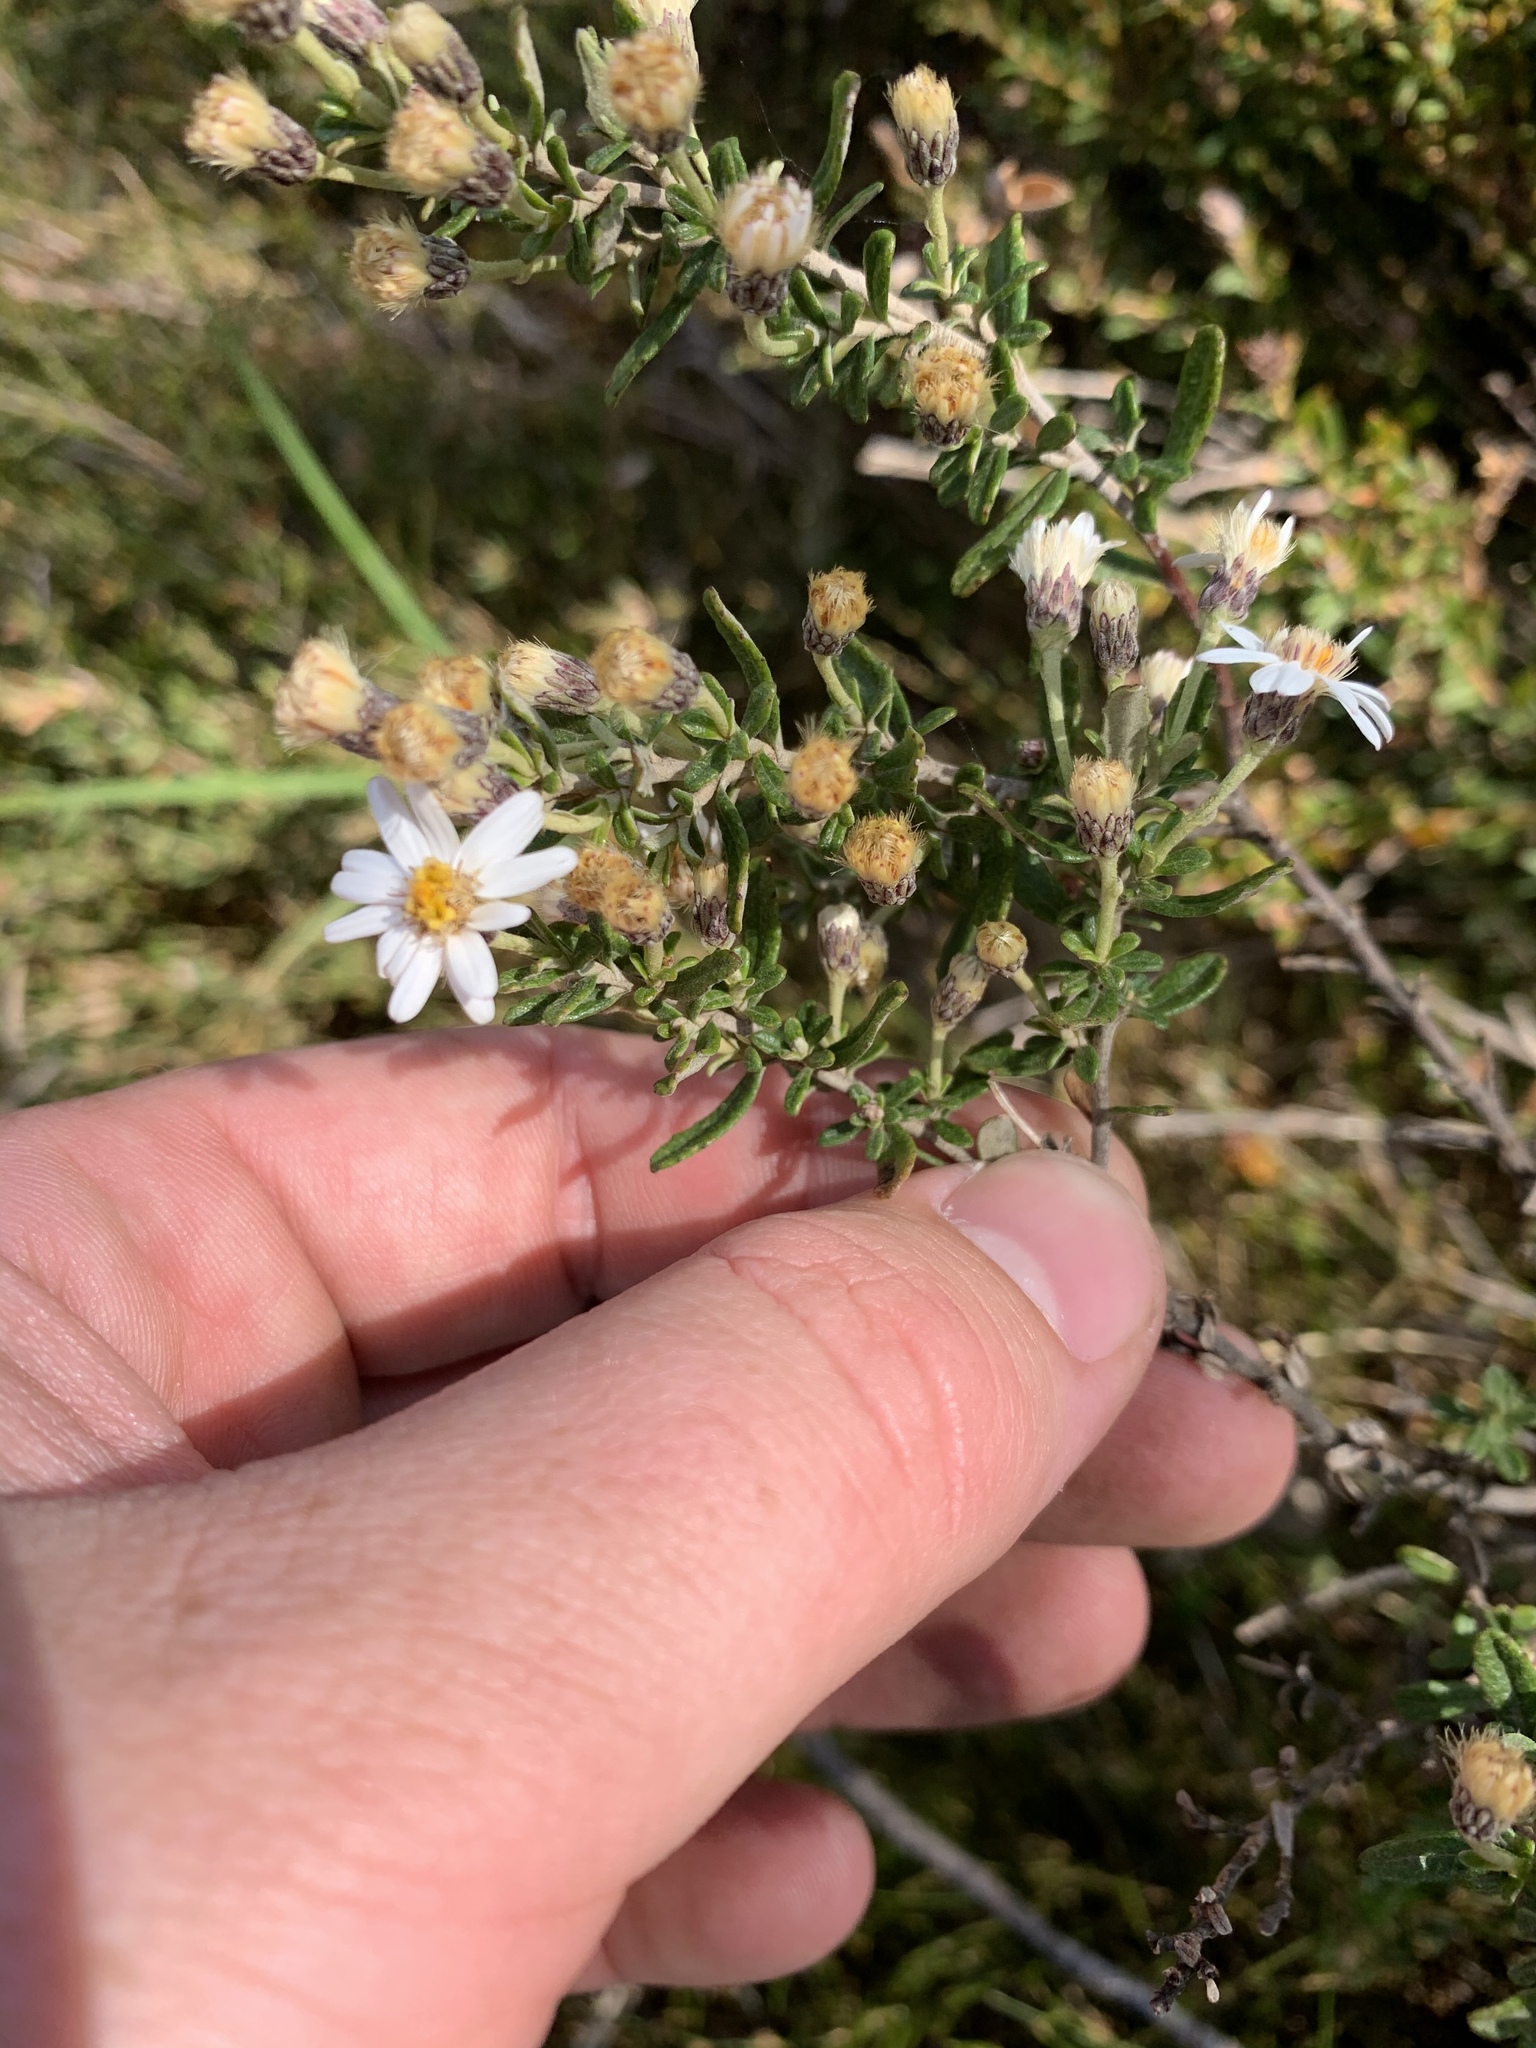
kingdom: Plantae
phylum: Tracheophyta
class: Magnoliopsida
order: Asterales
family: Asteraceae
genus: Olearia
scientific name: Olearia phlogopappa
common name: Alpine daisybush
